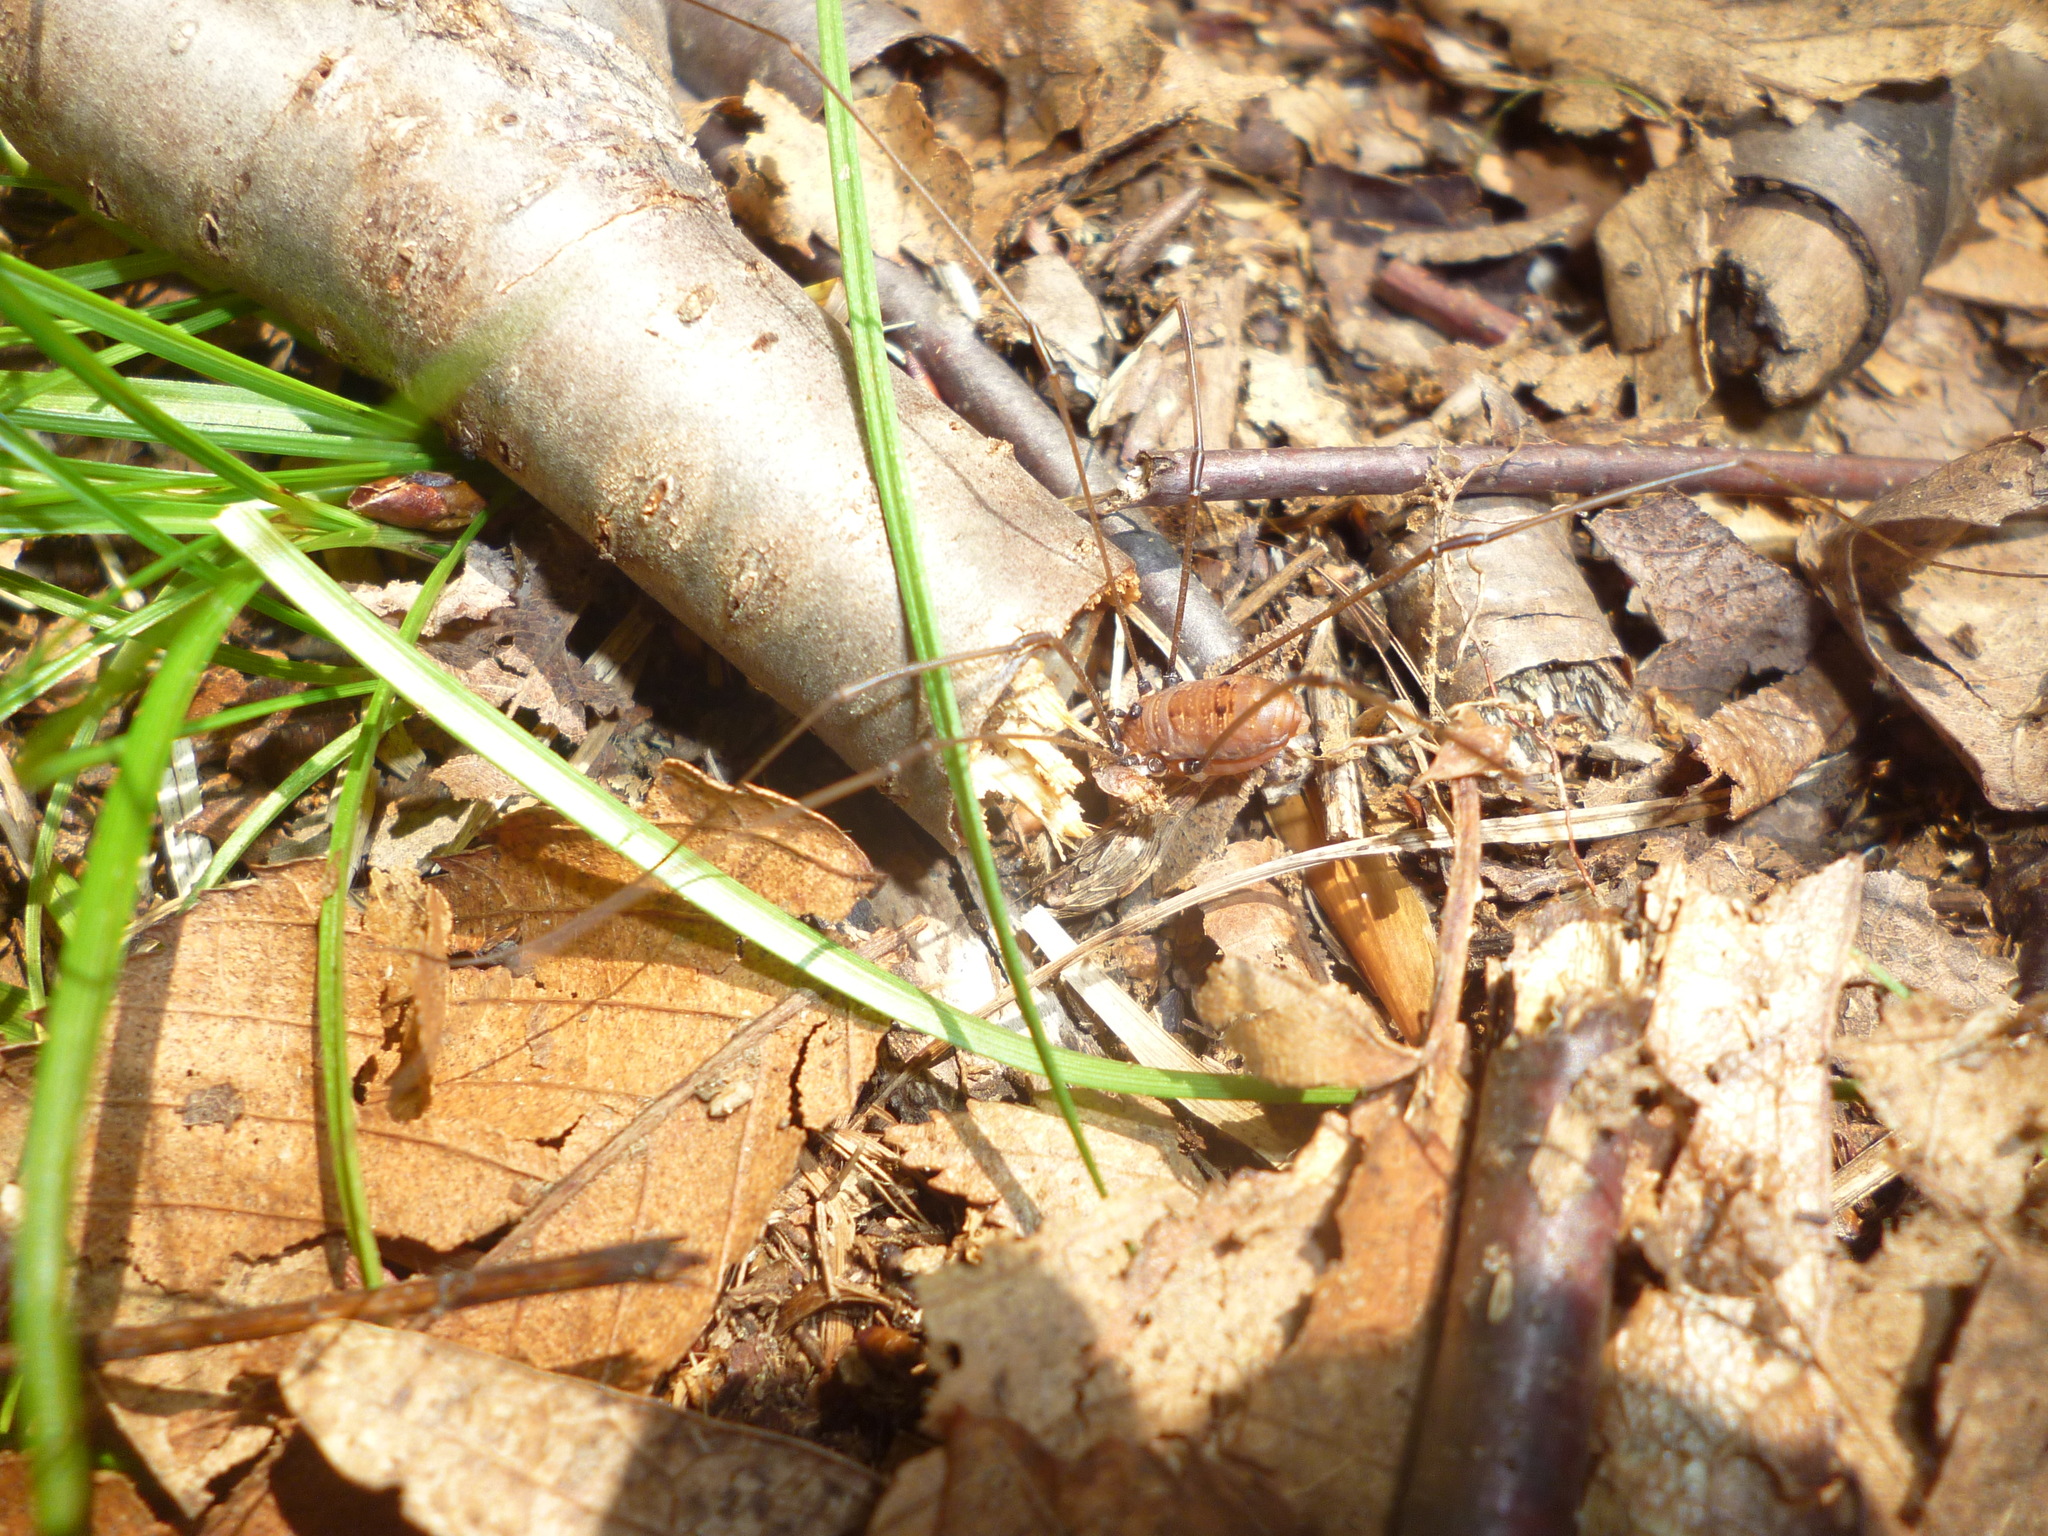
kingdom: Animalia
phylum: Arthropoda
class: Arachnida
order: Opiliones
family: Sclerosomatidae
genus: Leiobunum
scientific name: Leiobunum nigropalpi
